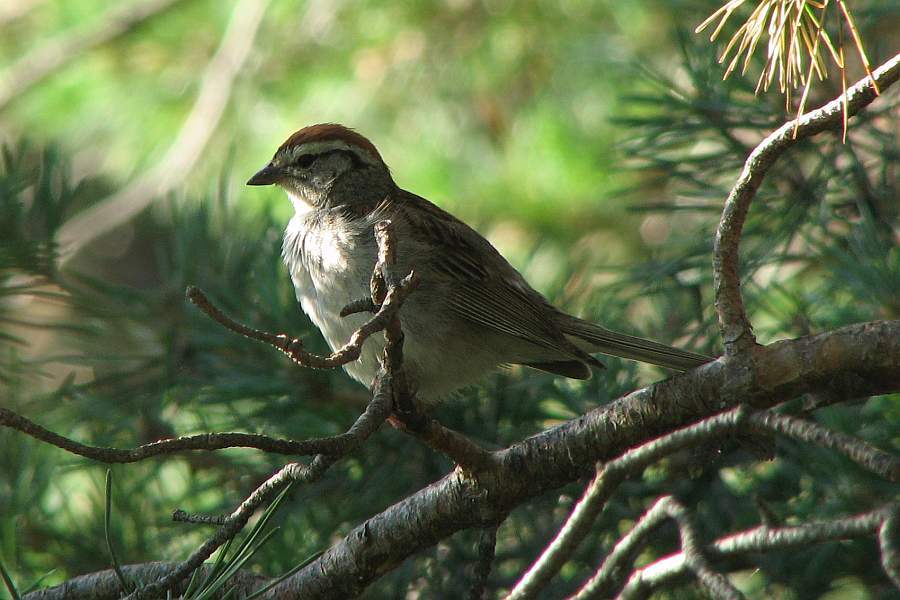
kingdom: Animalia
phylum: Chordata
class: Aves
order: Passeriformes
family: Passerellidae
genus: Spizella
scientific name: Spizella passerina
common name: Chipping sparrow
